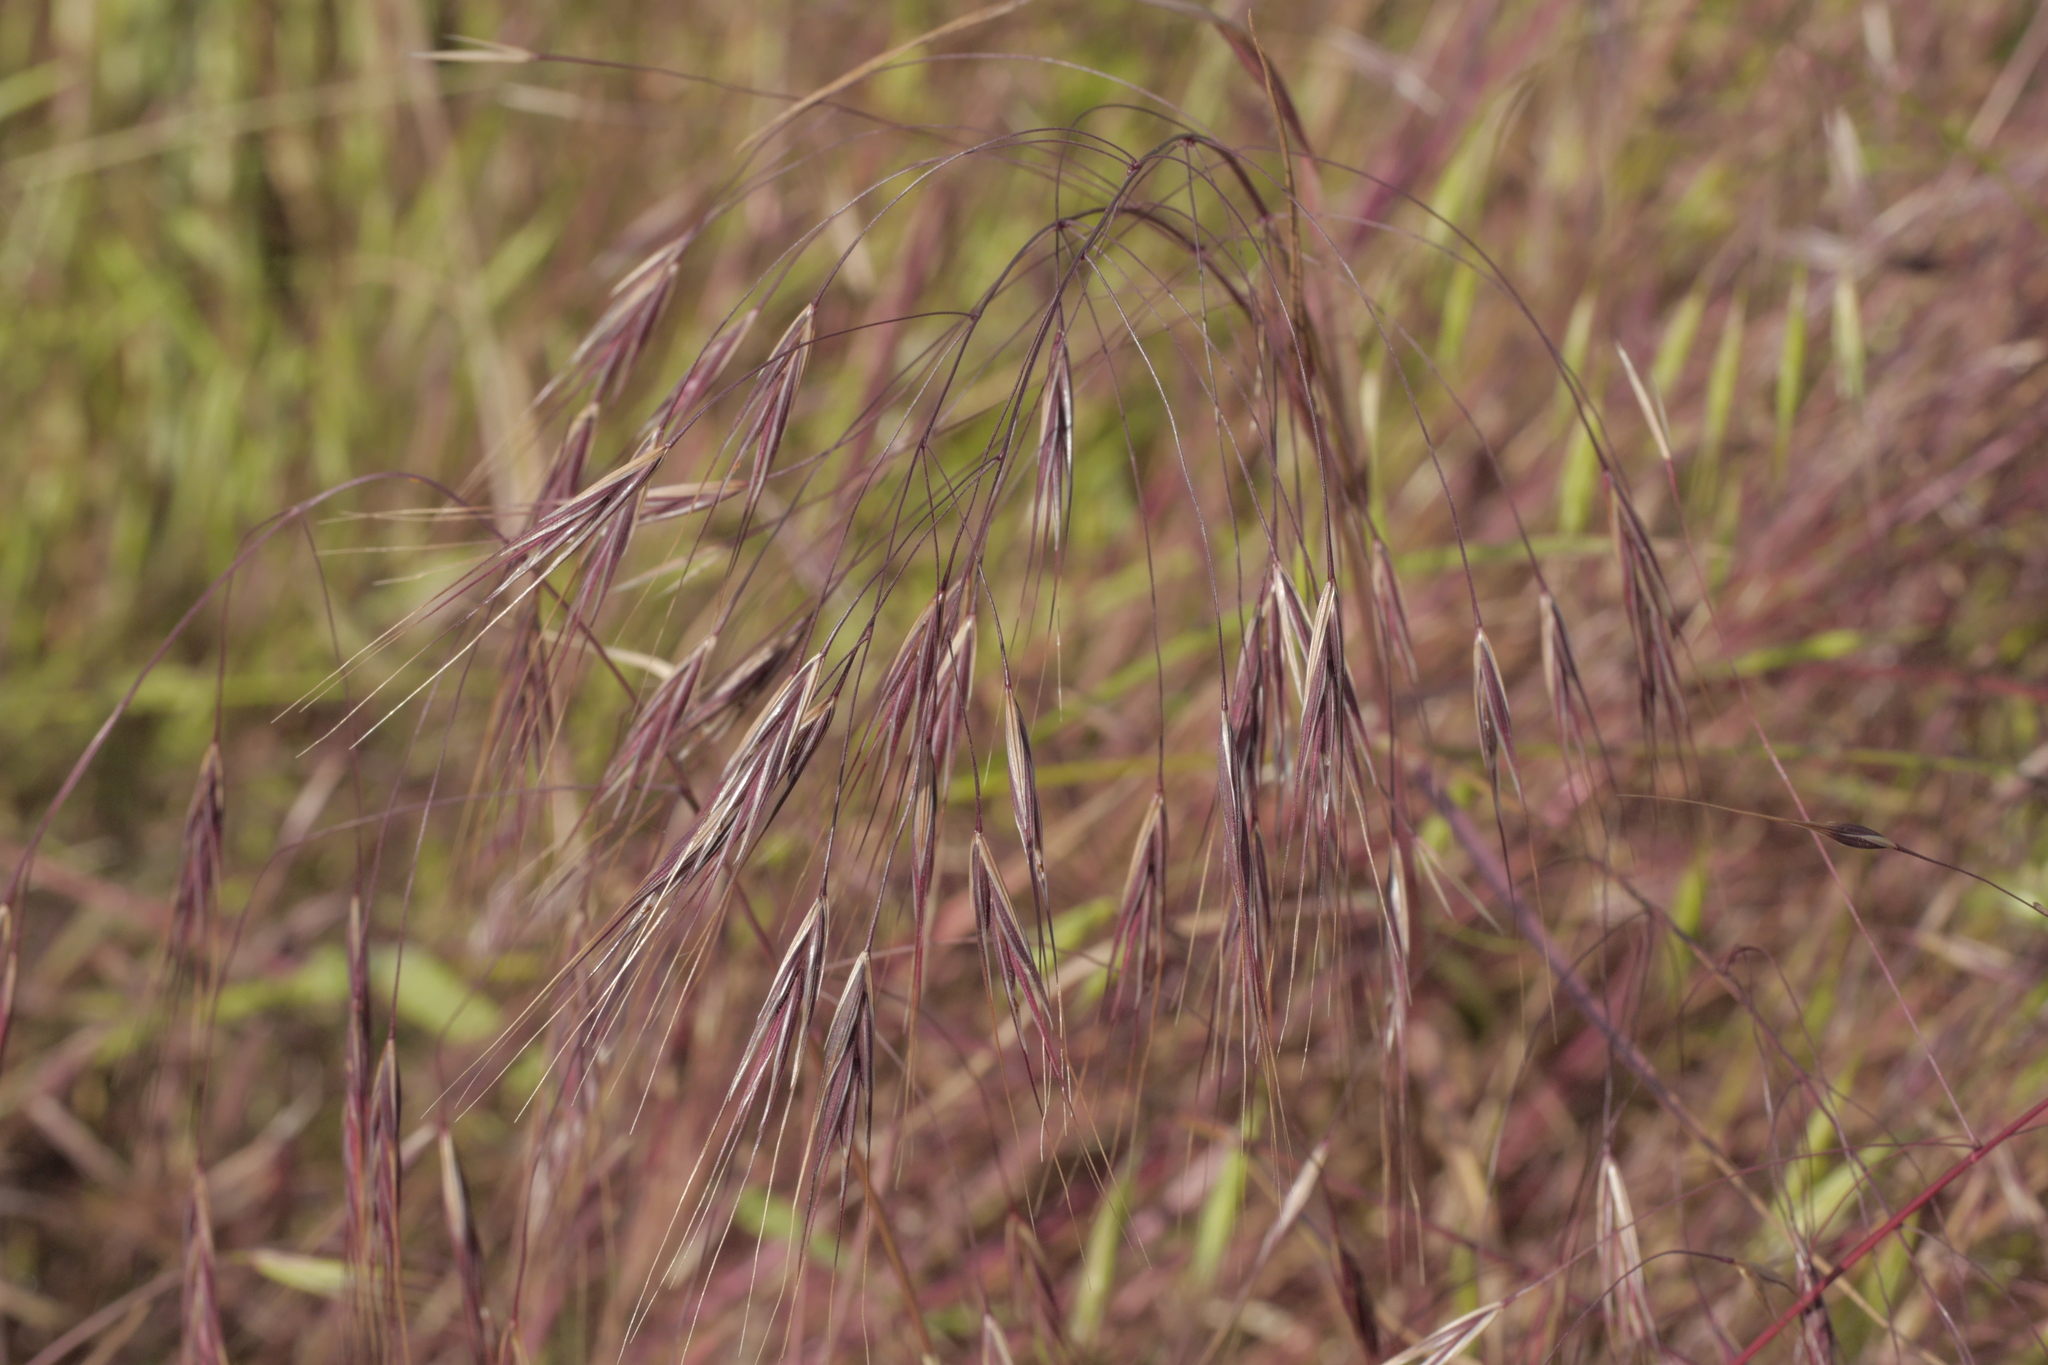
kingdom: Plantae
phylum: Tracheophyta
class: Liliopsida
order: Poales
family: Poaceae
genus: Bromus
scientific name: Bromus sterilis
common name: Poverty brome
